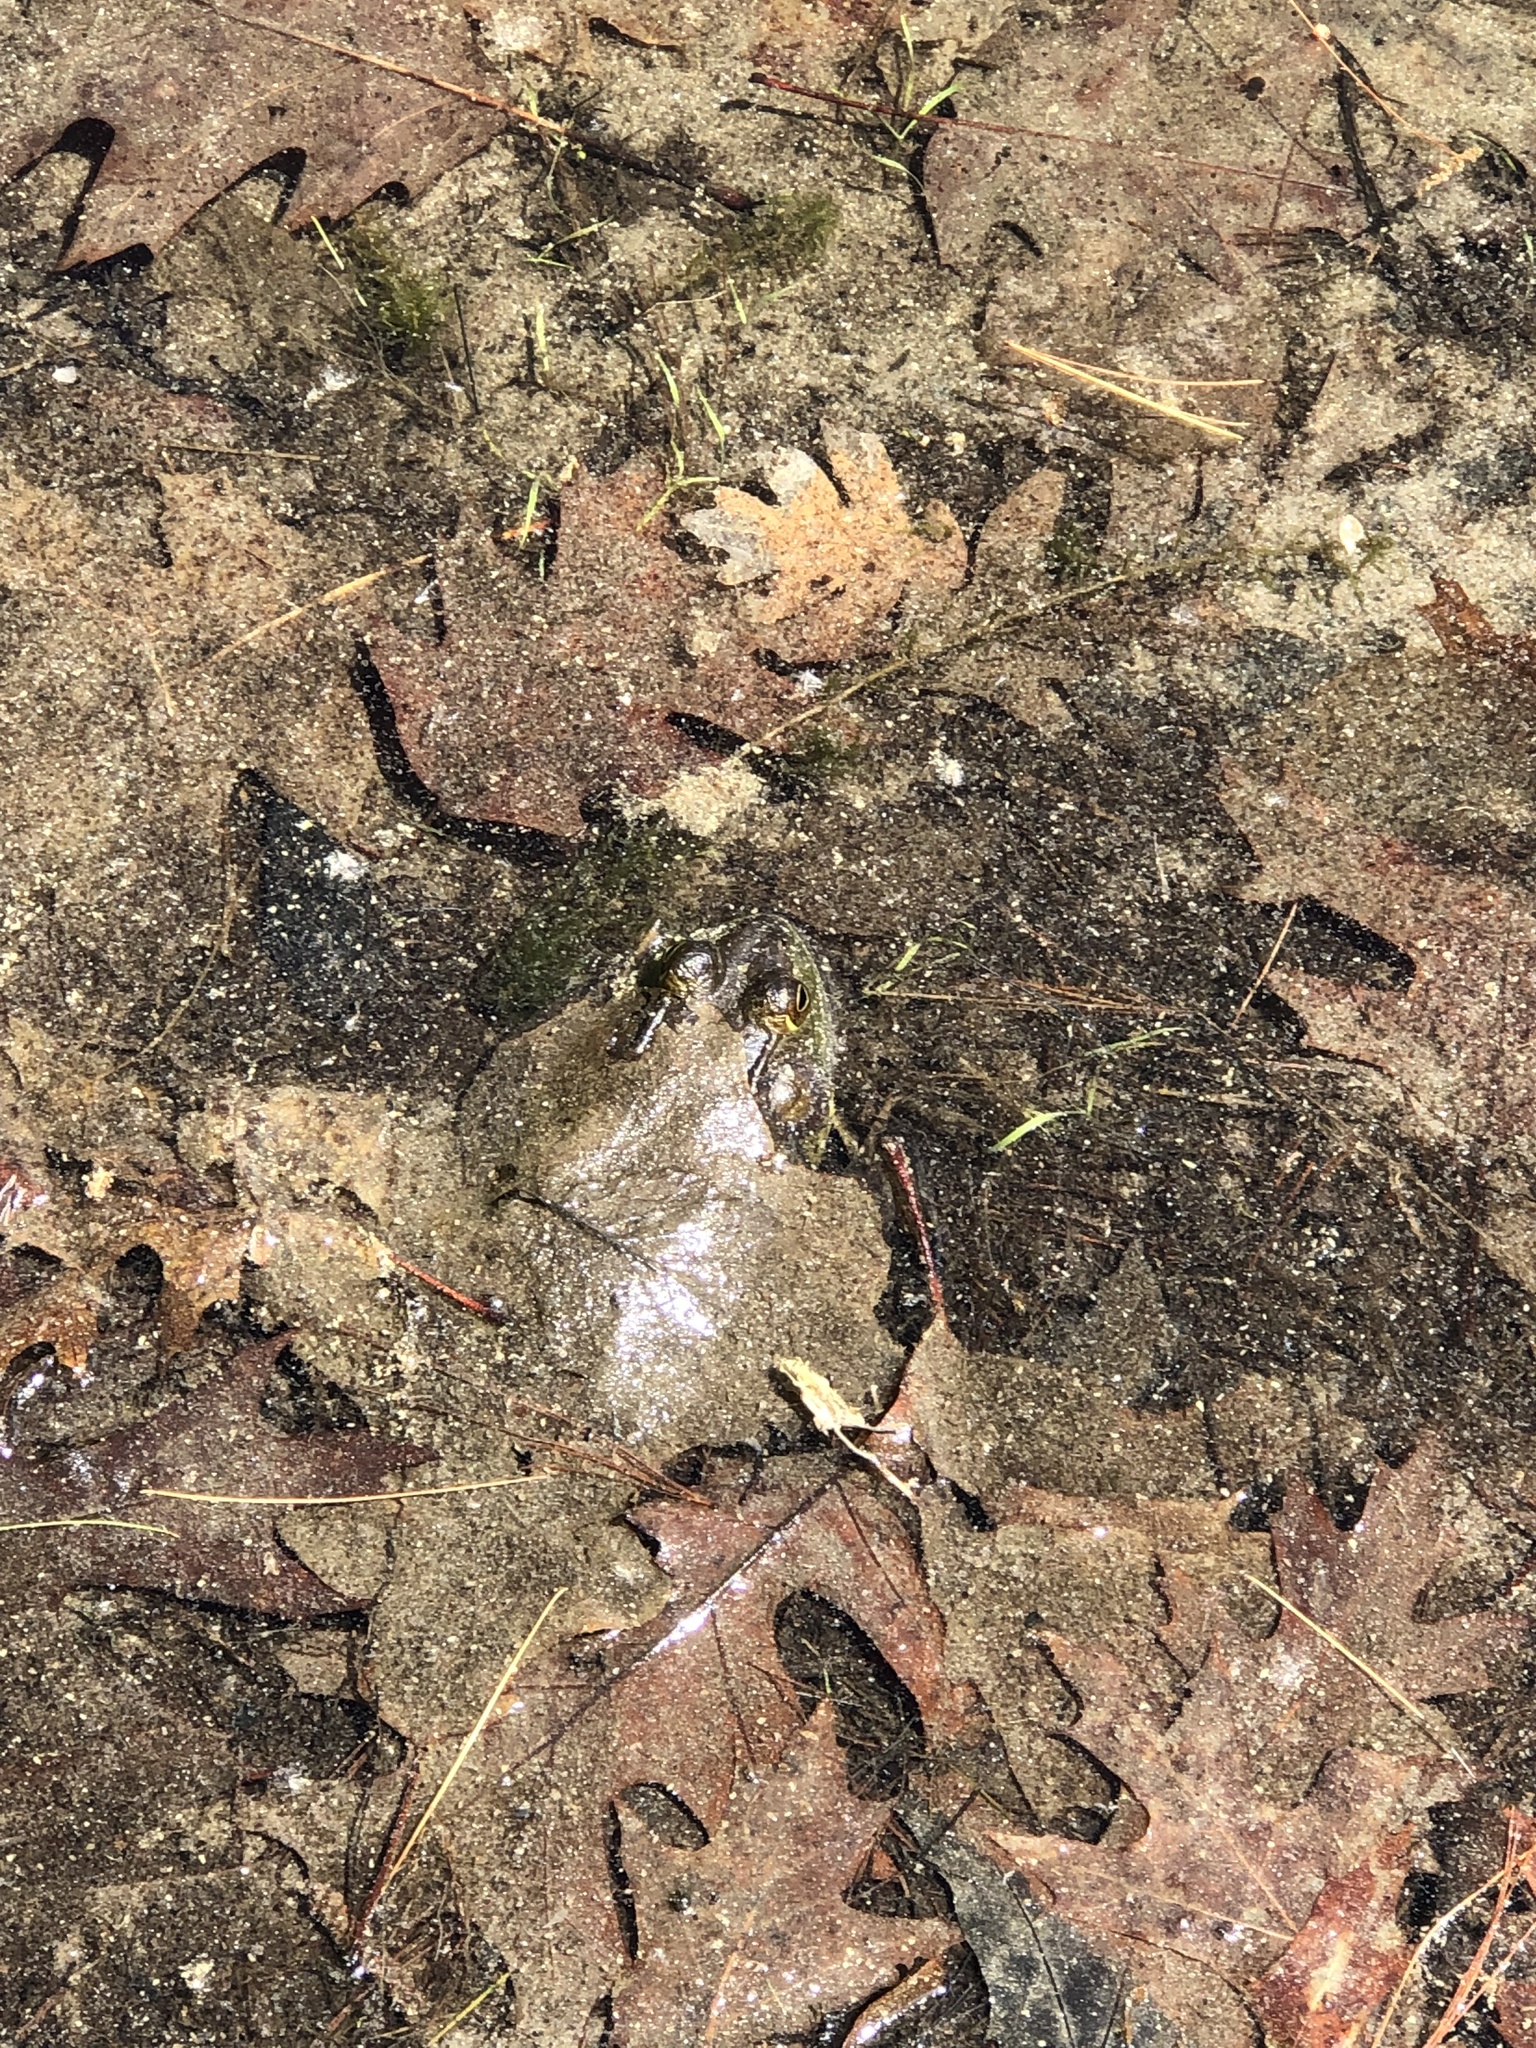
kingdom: Animalia
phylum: Chordata
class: Amphibia
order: Anura
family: Ranidae
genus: Lithobates
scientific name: Lithobates catesbeianus
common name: American bullfrog
